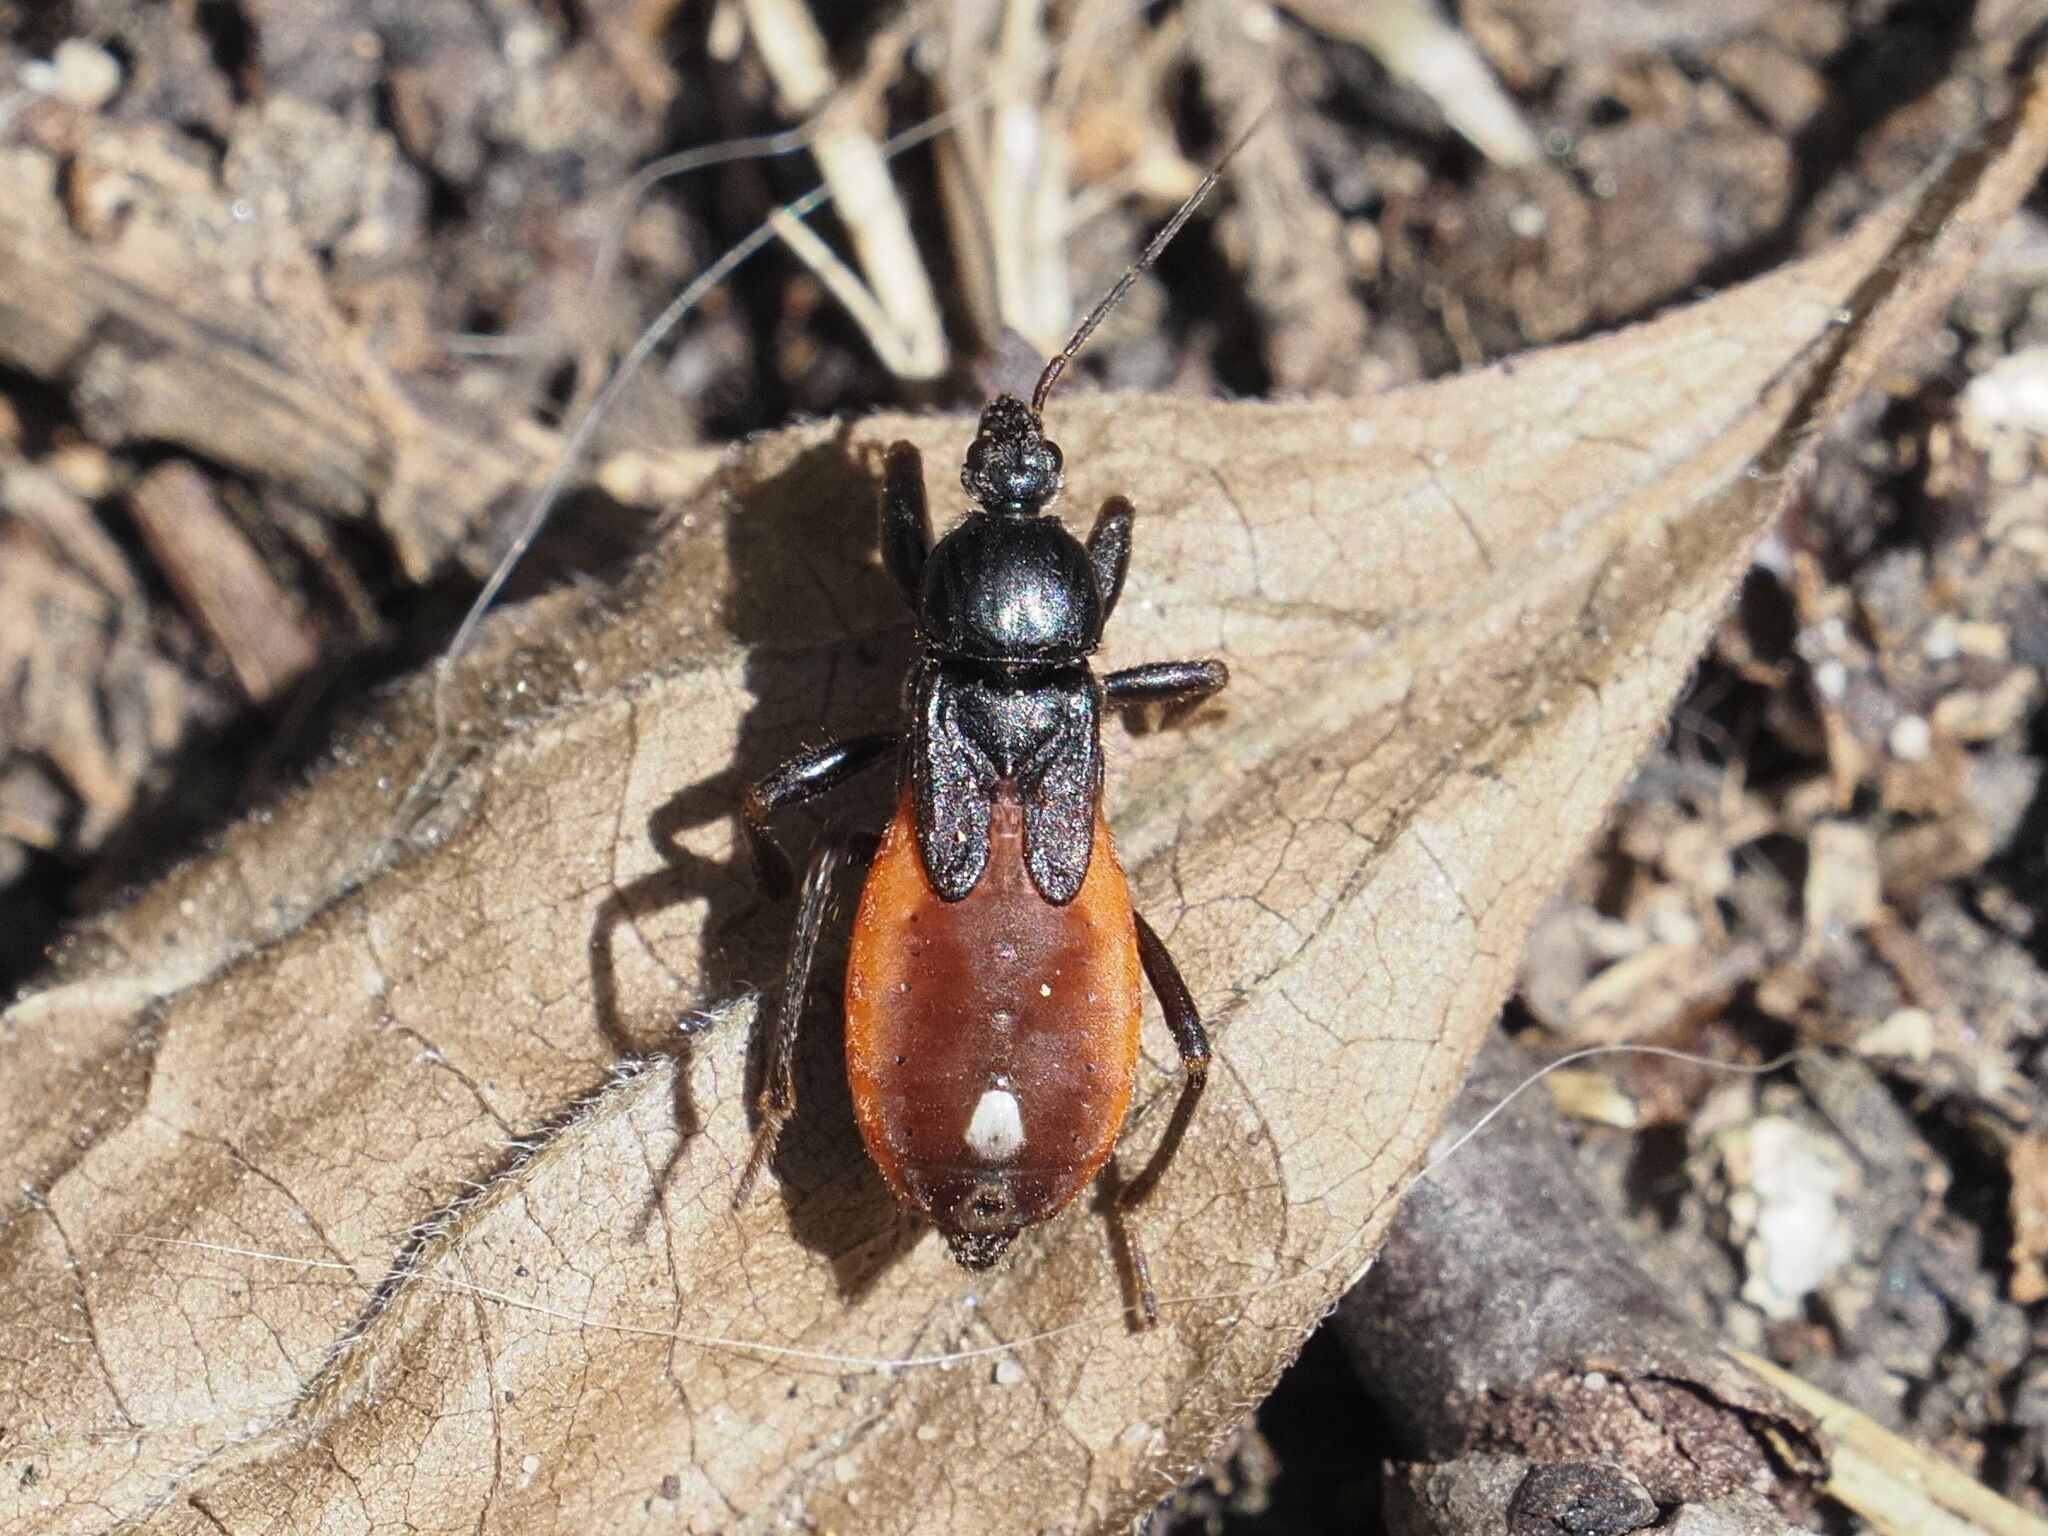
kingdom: Animalia
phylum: Arthropoda
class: Insecta
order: Hemiptera
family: Reduviidae
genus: Peirates
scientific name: Peirates hybridus
